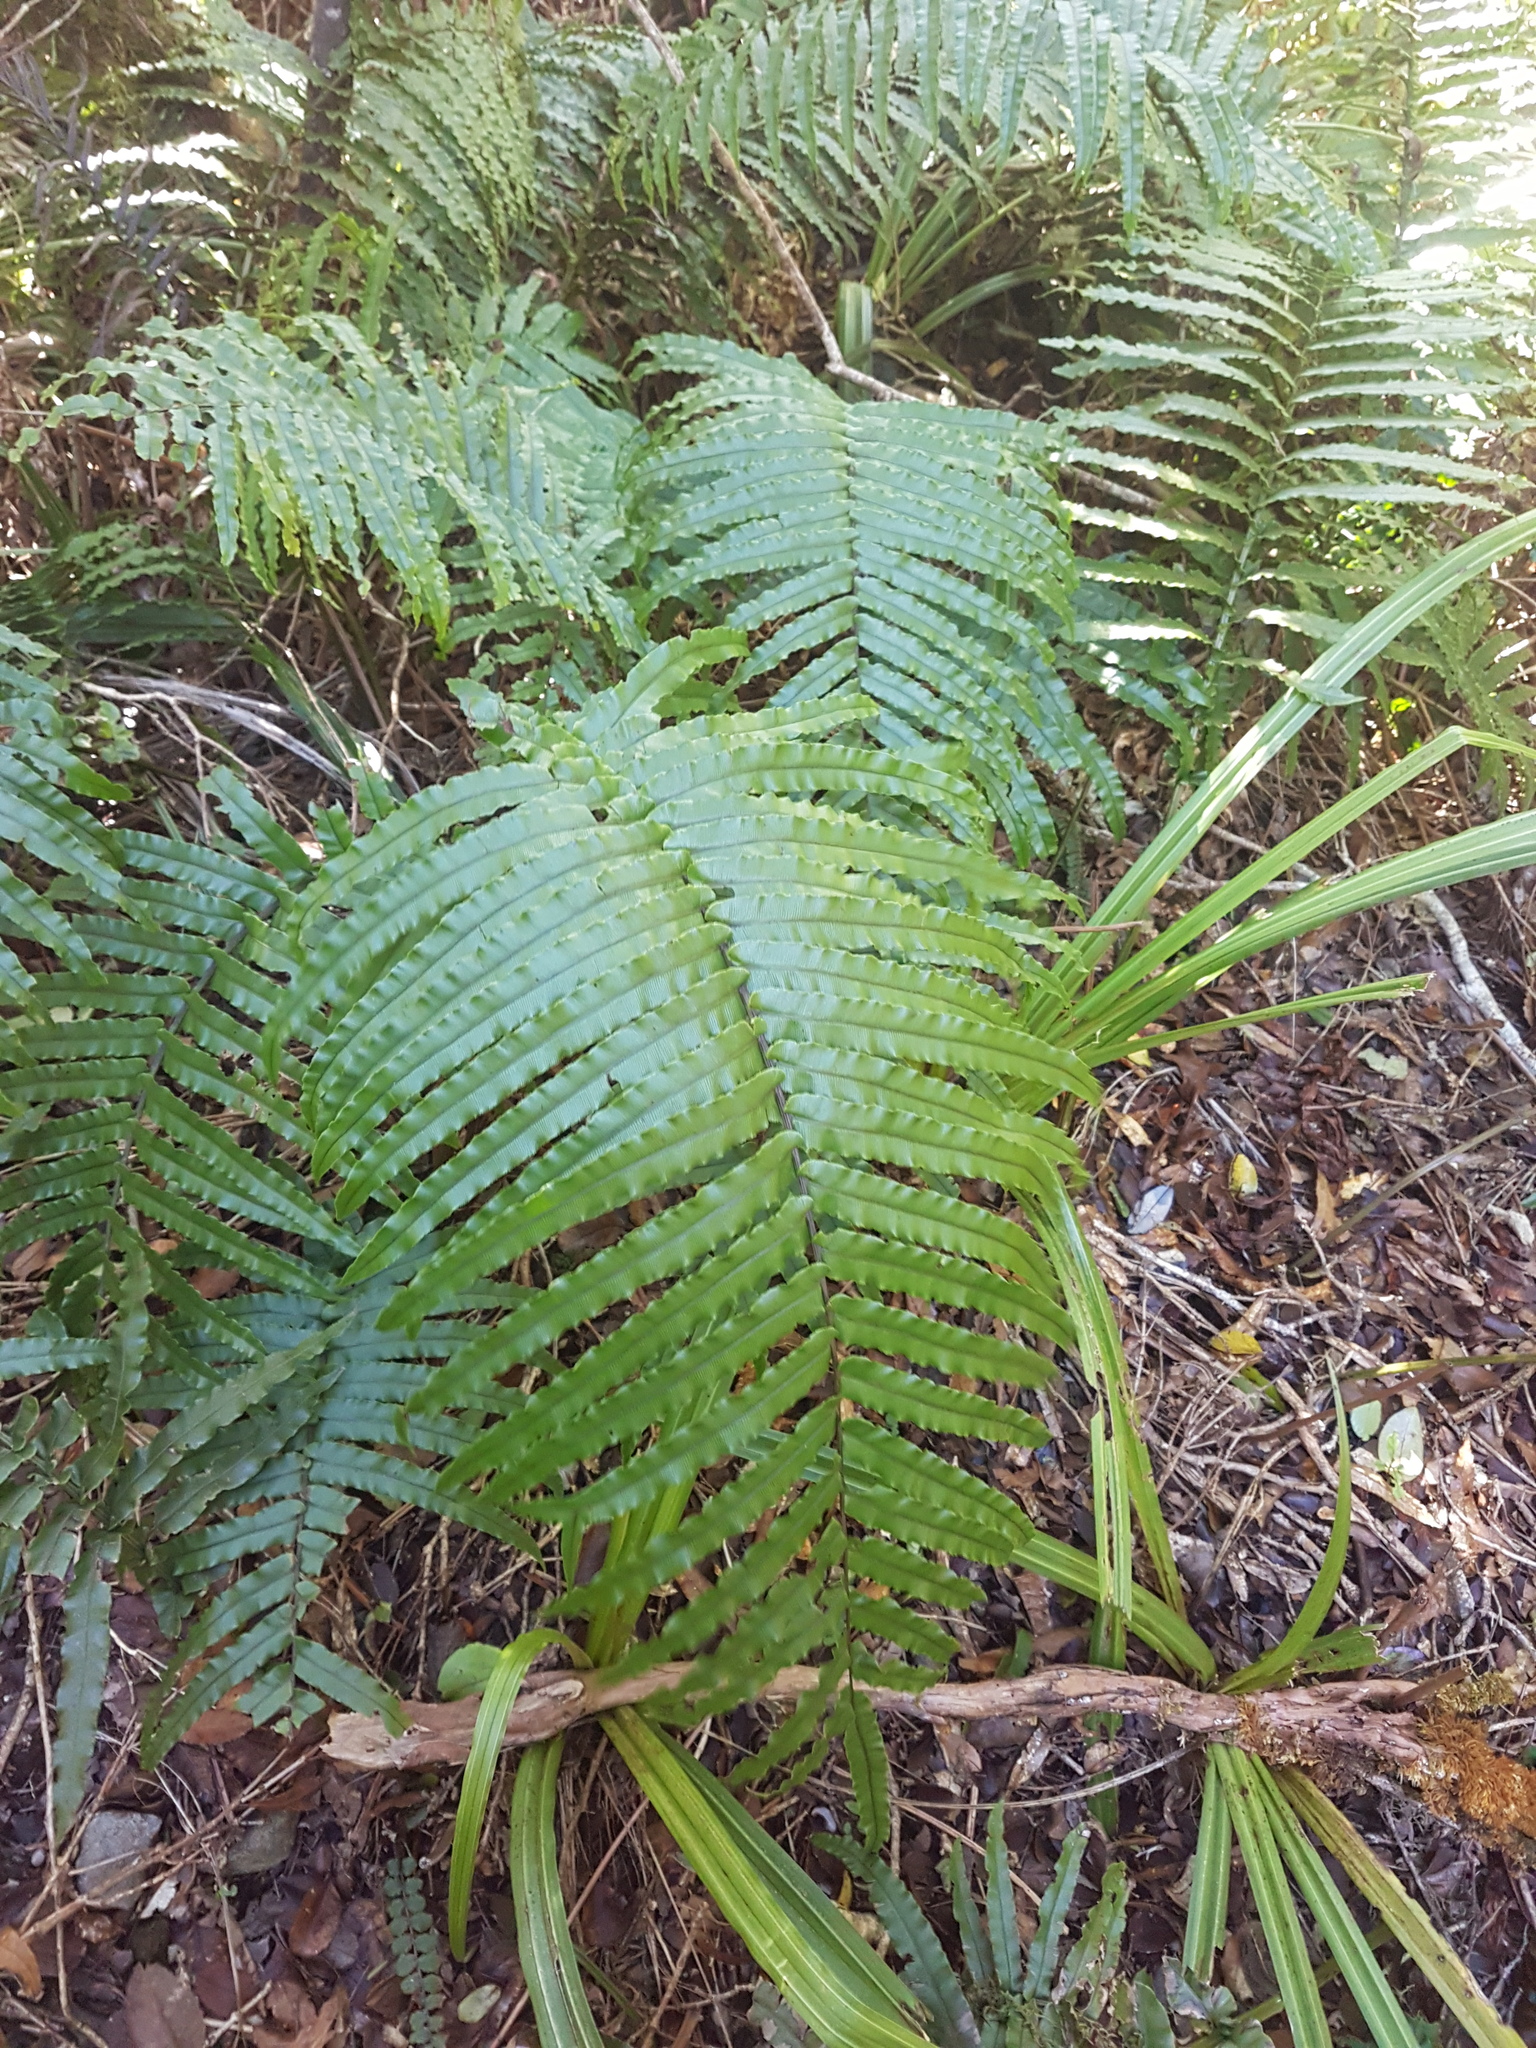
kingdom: Plantae
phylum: Tracheophyta
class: Polypodiopsida
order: Polypodiales
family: Blechnaceae
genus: Parablechnum
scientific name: Parablechnum novae-zelandiae
